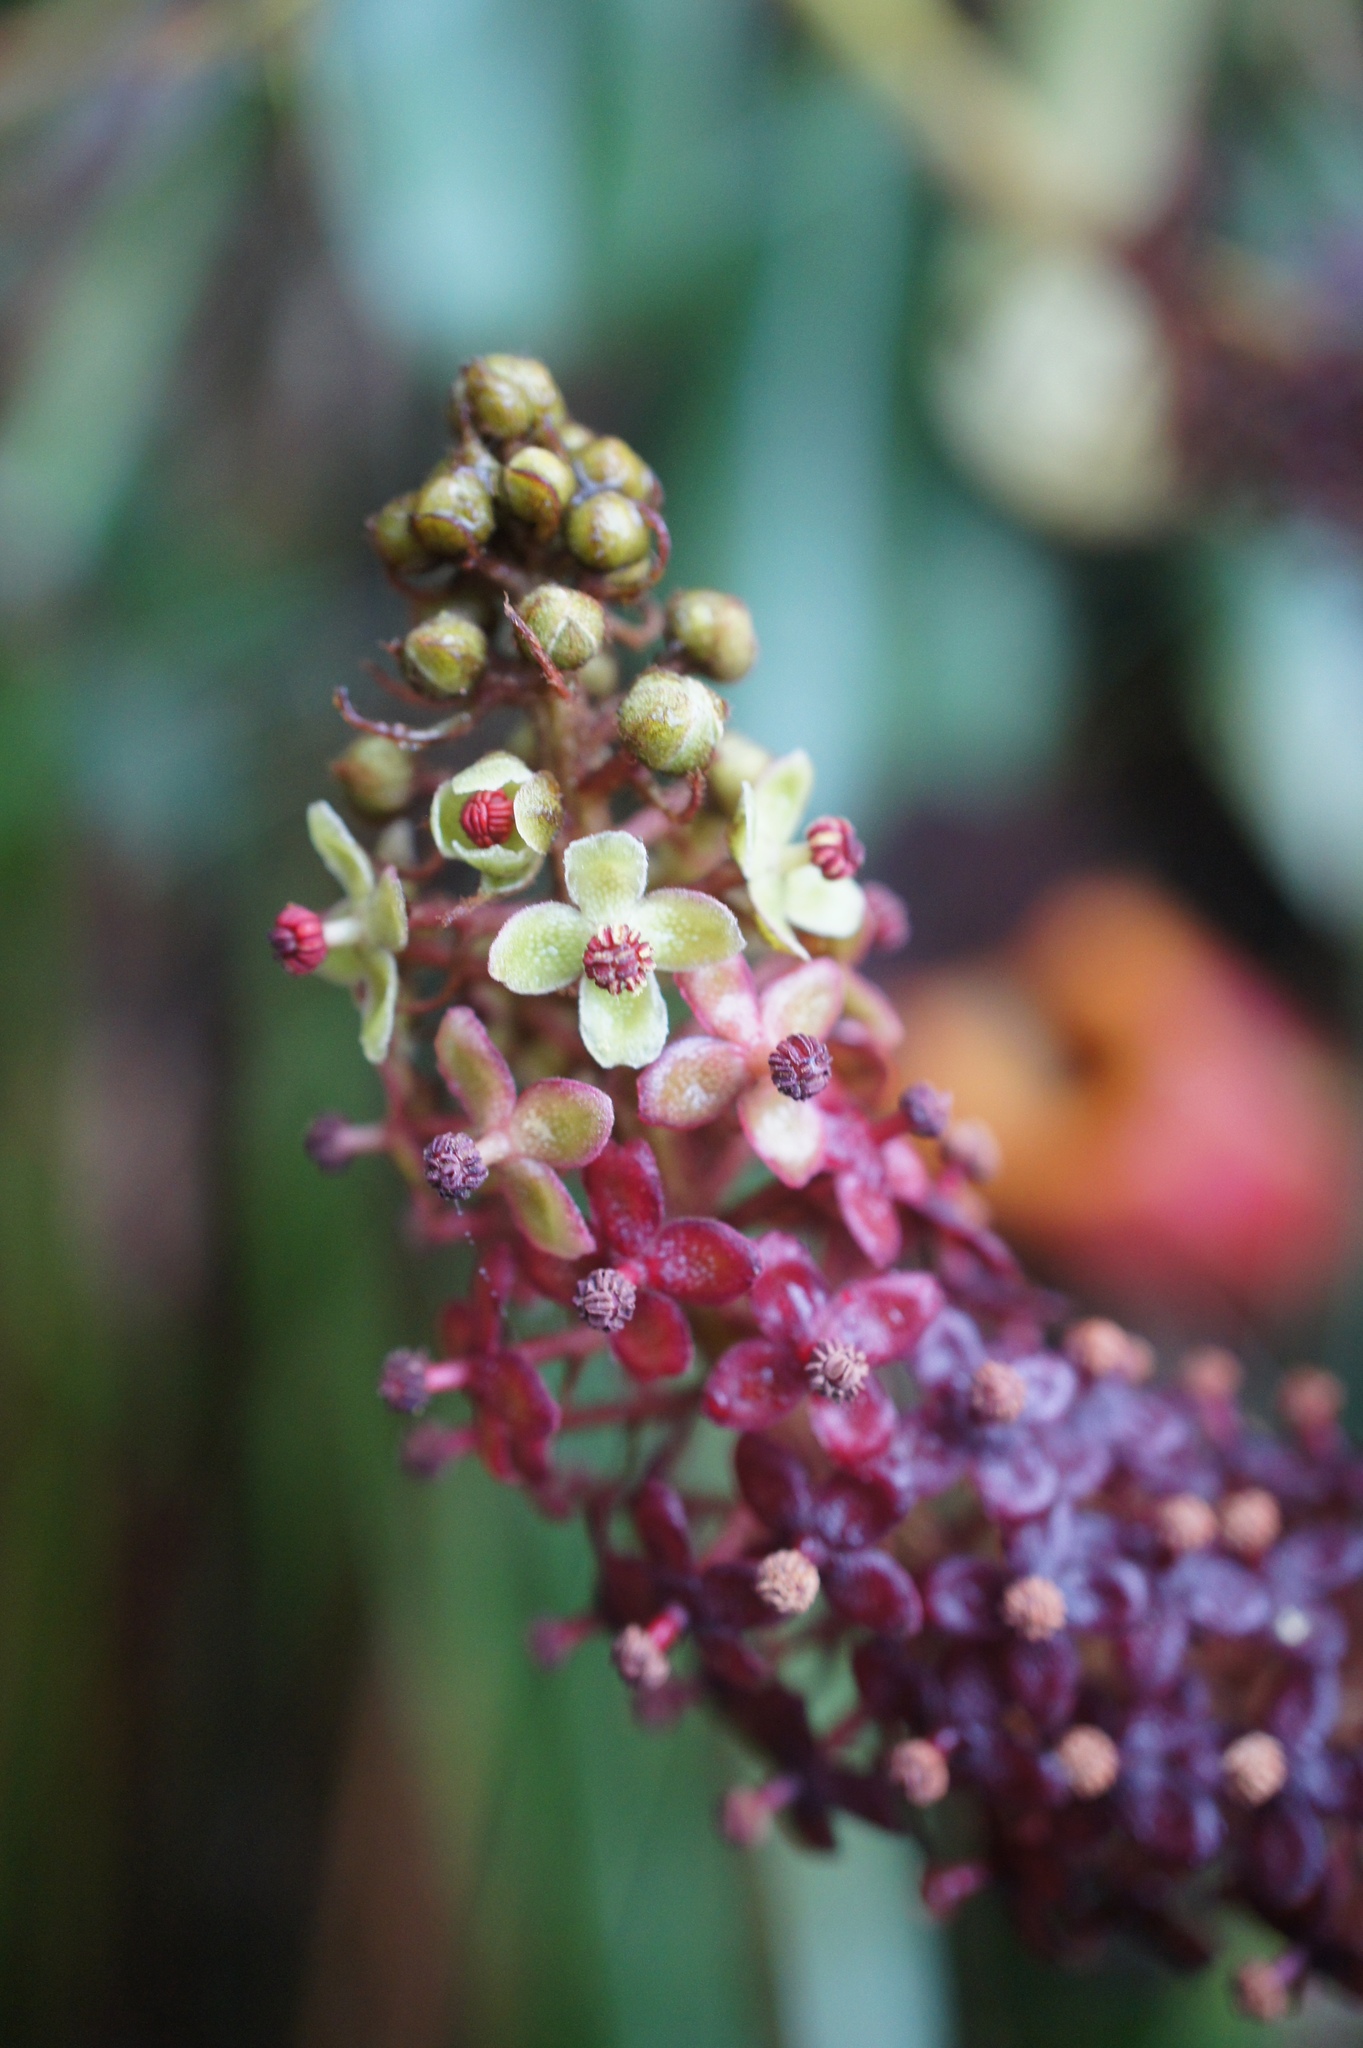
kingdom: Plantae
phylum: Tracheophyta
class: Magnoliopsida
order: Caryophyllales
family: Nepenthaceae
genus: Nepenthes
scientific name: Nepenthes villosa
